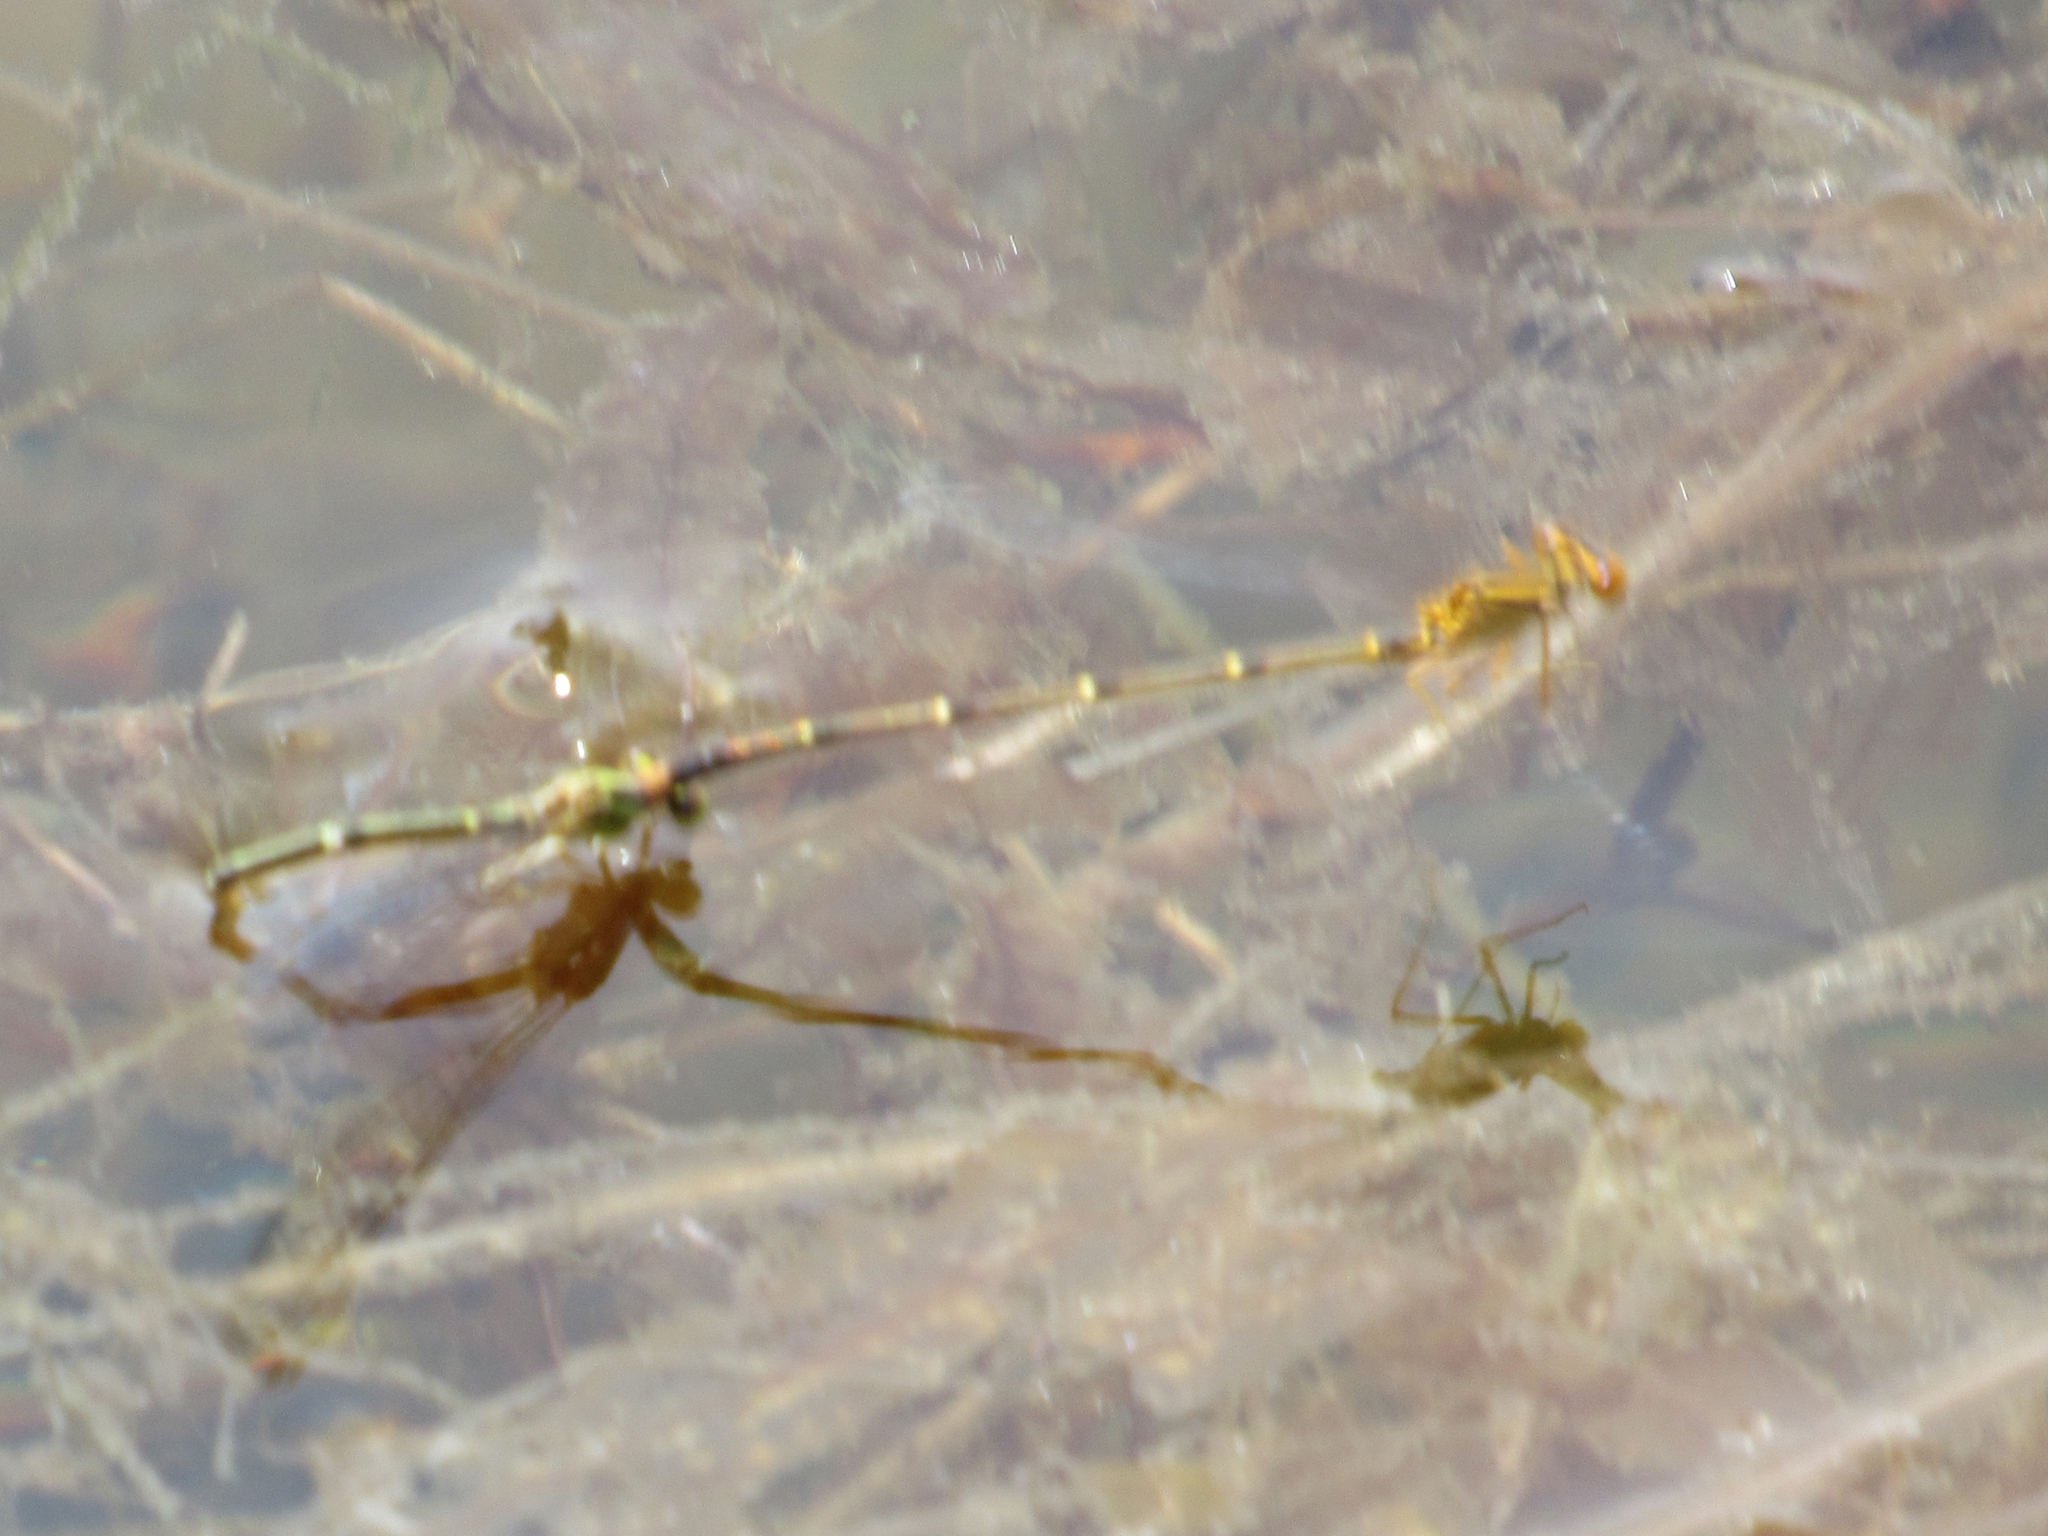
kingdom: Animalia
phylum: Arthropoda
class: Insecta
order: Odonata
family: Coenagrionidae
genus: Enallagma
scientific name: Enallagma signatum
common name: Orange bluet
